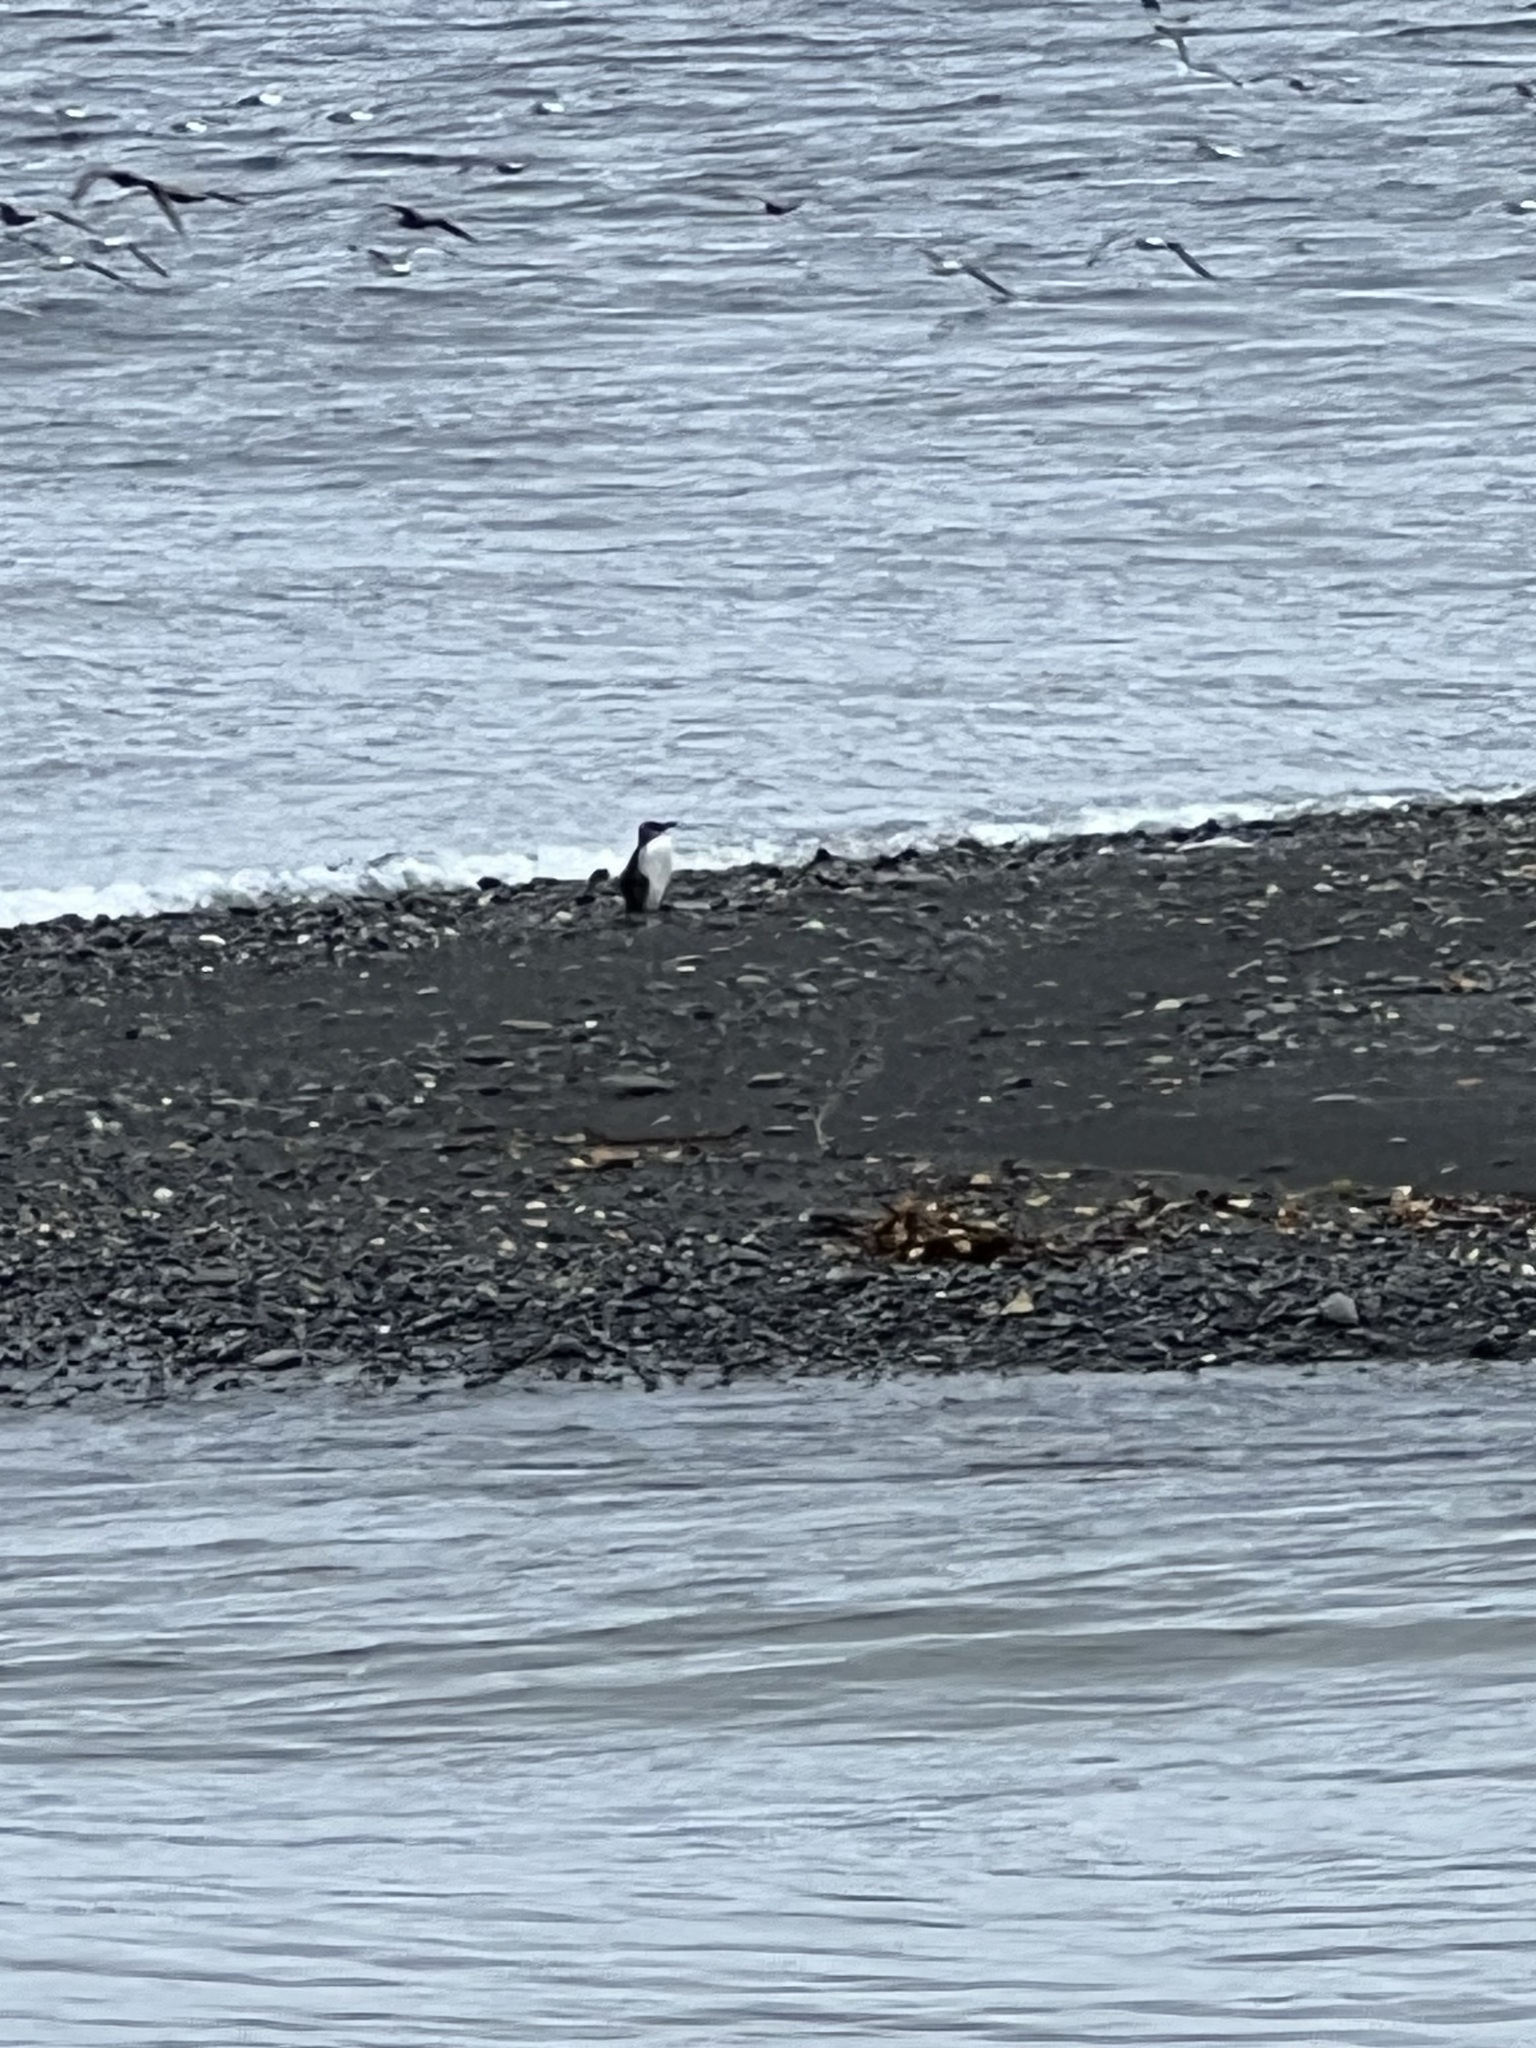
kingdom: Animalia
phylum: Chordata
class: Aves
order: Charadriiformes
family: Alcidae
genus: Uria
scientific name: Uria aalge
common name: Common murre
